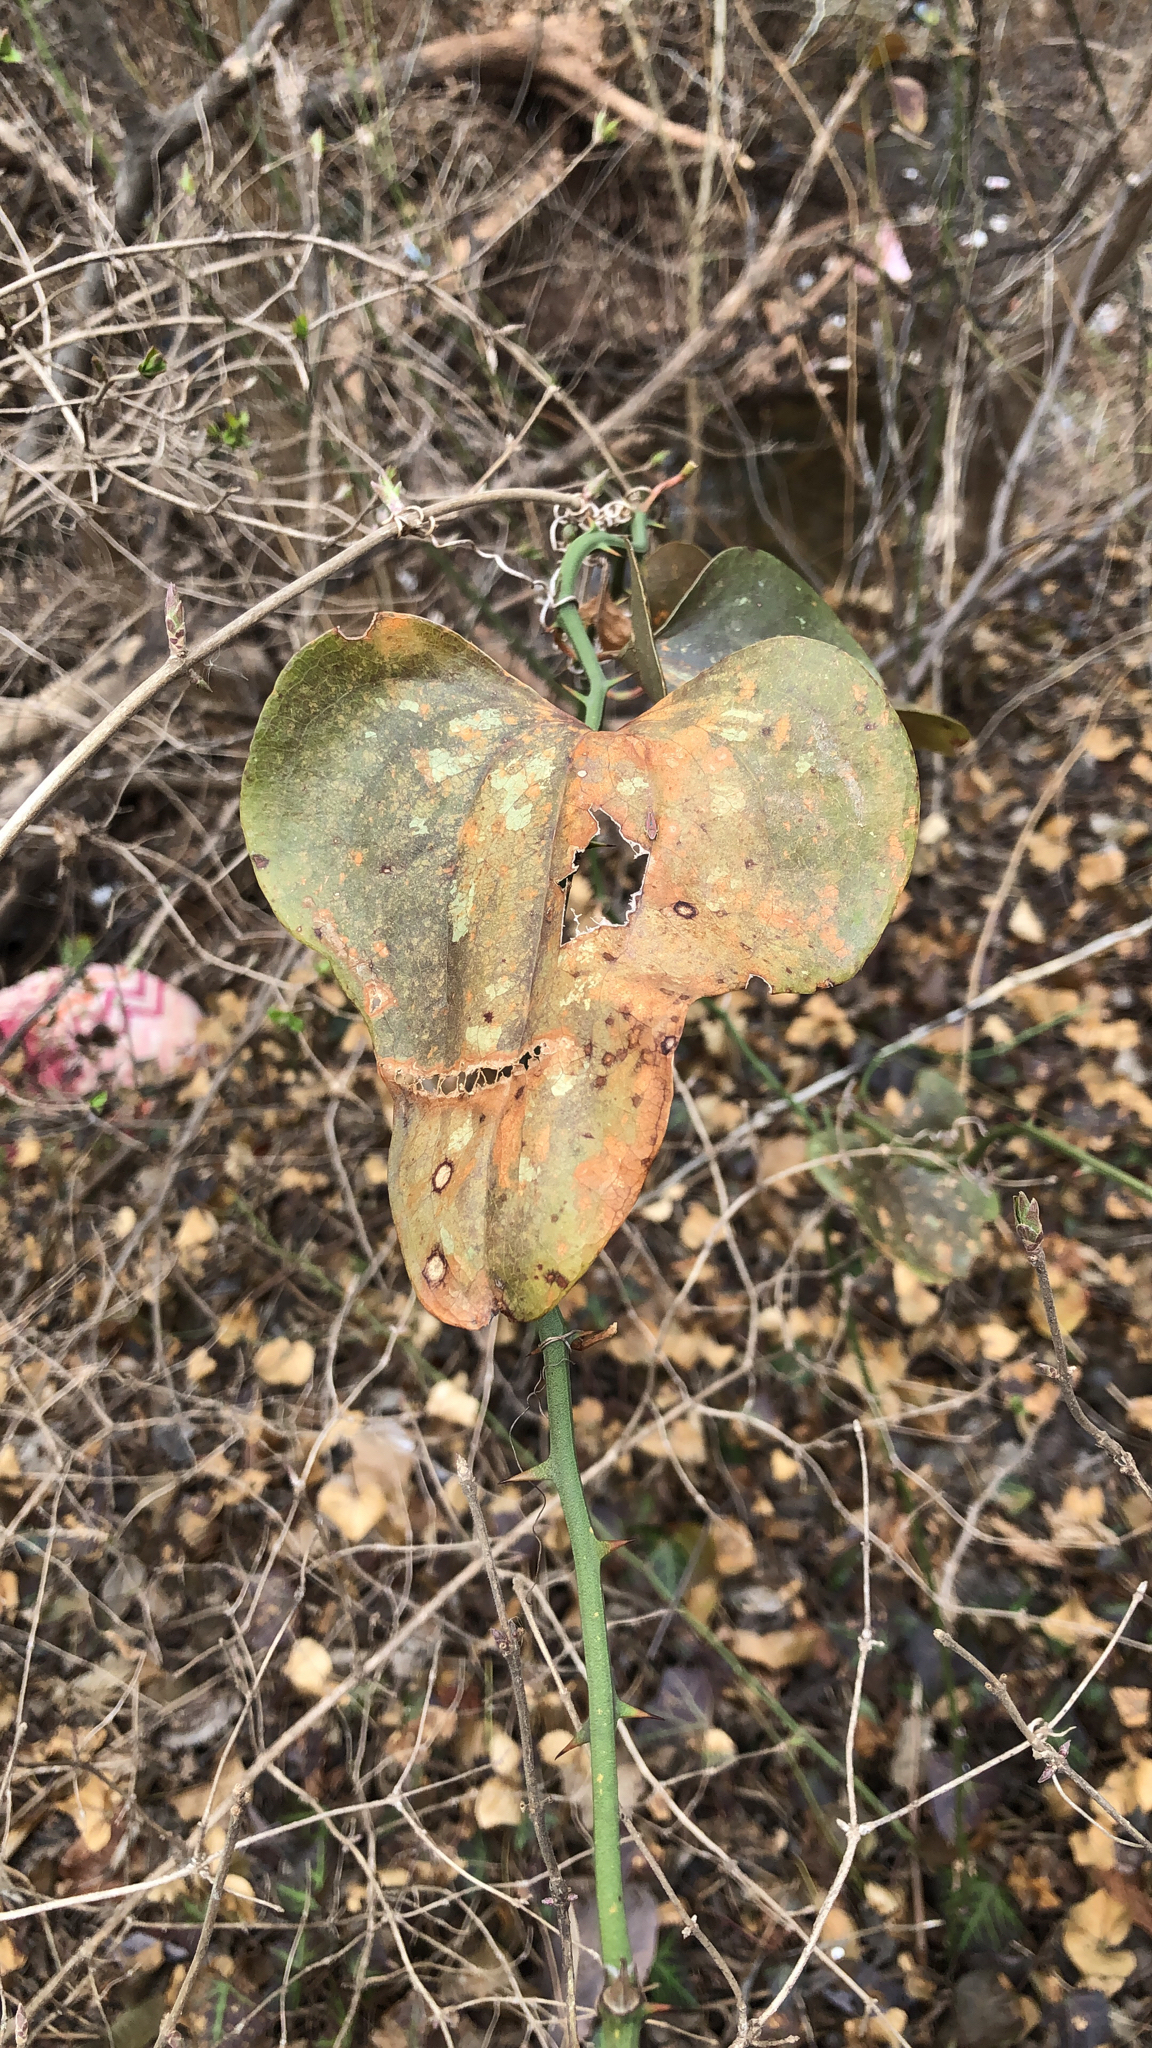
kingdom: Plantae
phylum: Tracheophyta
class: Liliopsida
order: Liliales
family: Smilacaceae
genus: Smilax
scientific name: Smilax bona-nox
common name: Catbrier
